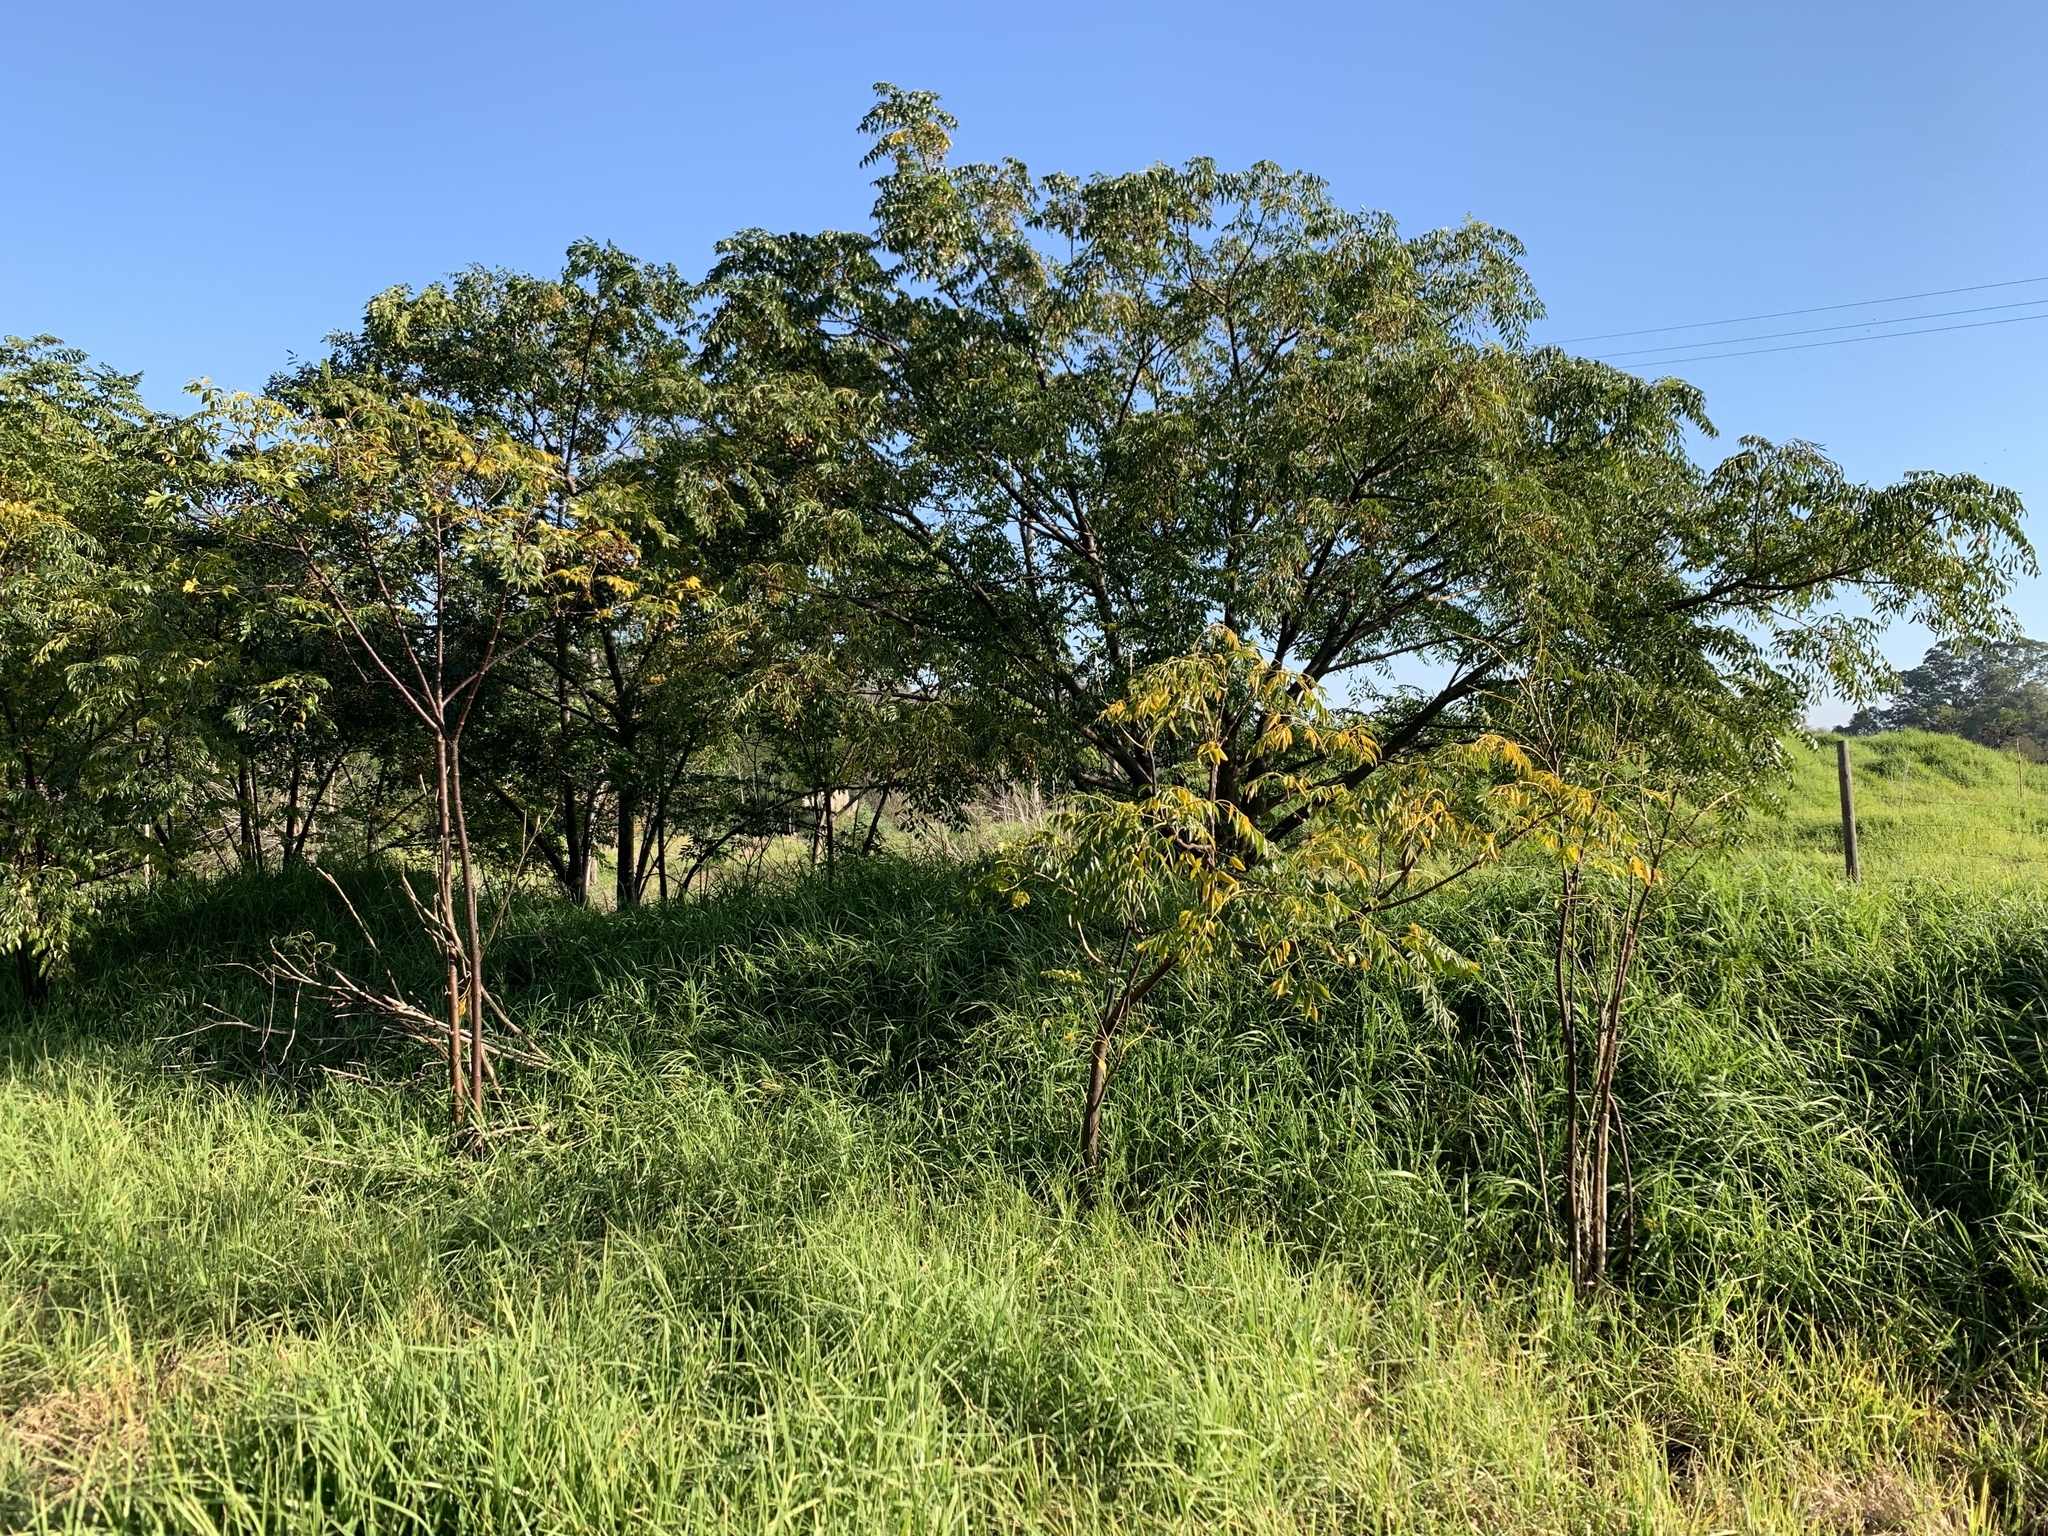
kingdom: Plantae
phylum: Tracheophyta
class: Magnoliopsida
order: Sapindales
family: Meliaceae
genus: Melia
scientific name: Melia azedarach
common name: Chinaberrytree
